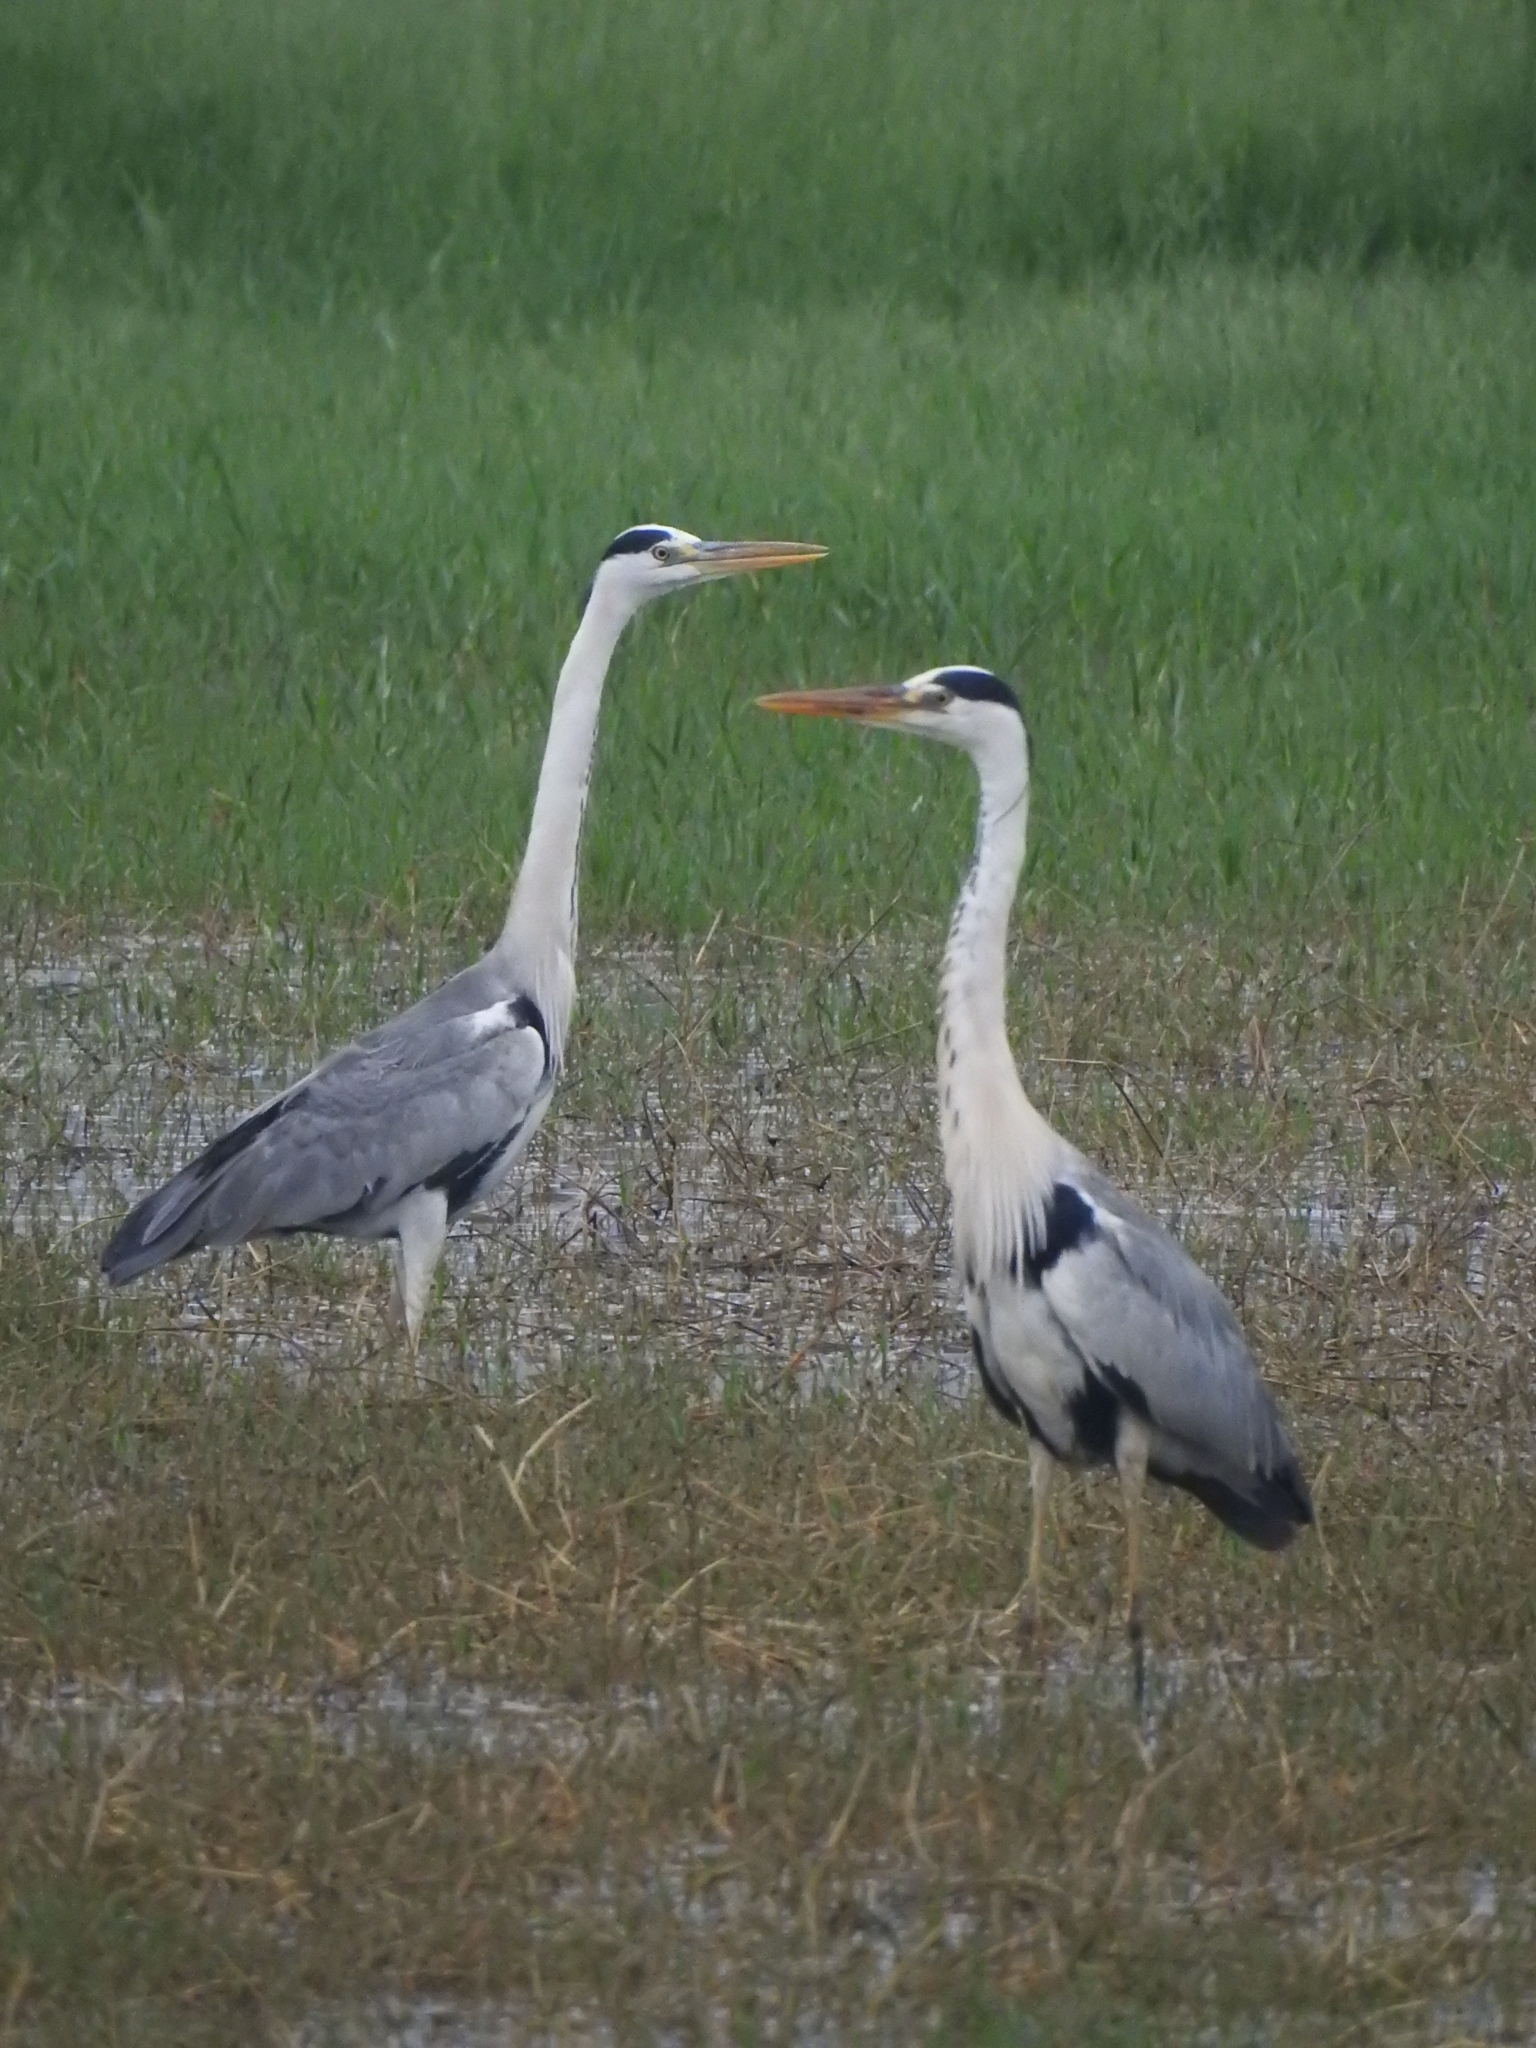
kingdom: Animalia
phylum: Chordata
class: Aves
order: Pelecaniformes
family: Ardeidae
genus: Ardea
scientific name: Ardea cinerea
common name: Grey heron
